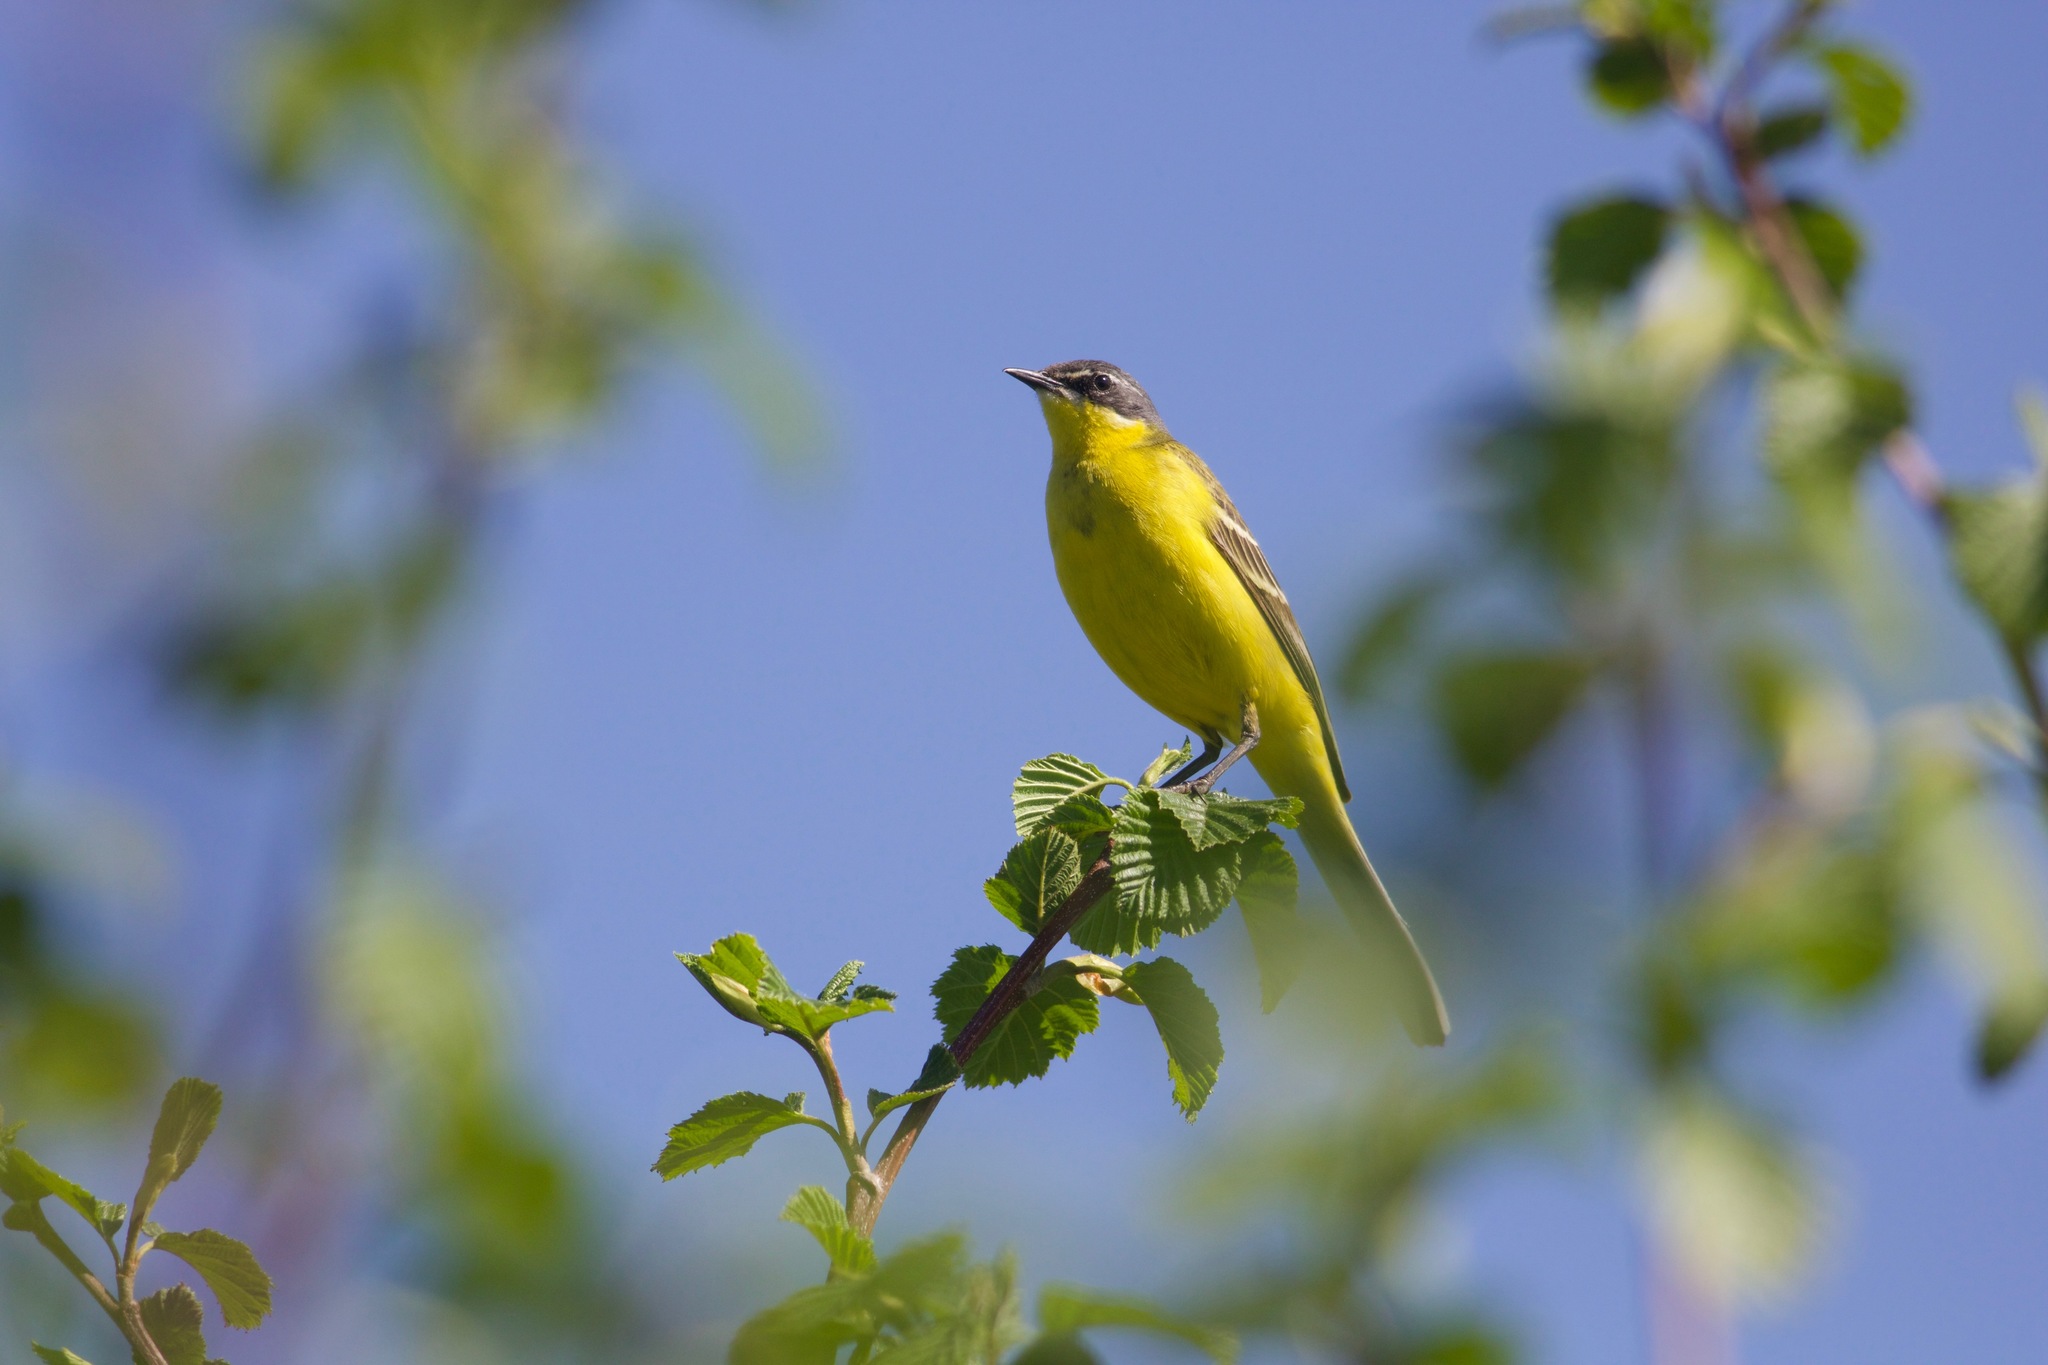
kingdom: Animalia
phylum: Chordata
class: Aves
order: Passeriformes
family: Motacillidae
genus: Motacilla
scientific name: Motacilla flava
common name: Western yellow wagtail
